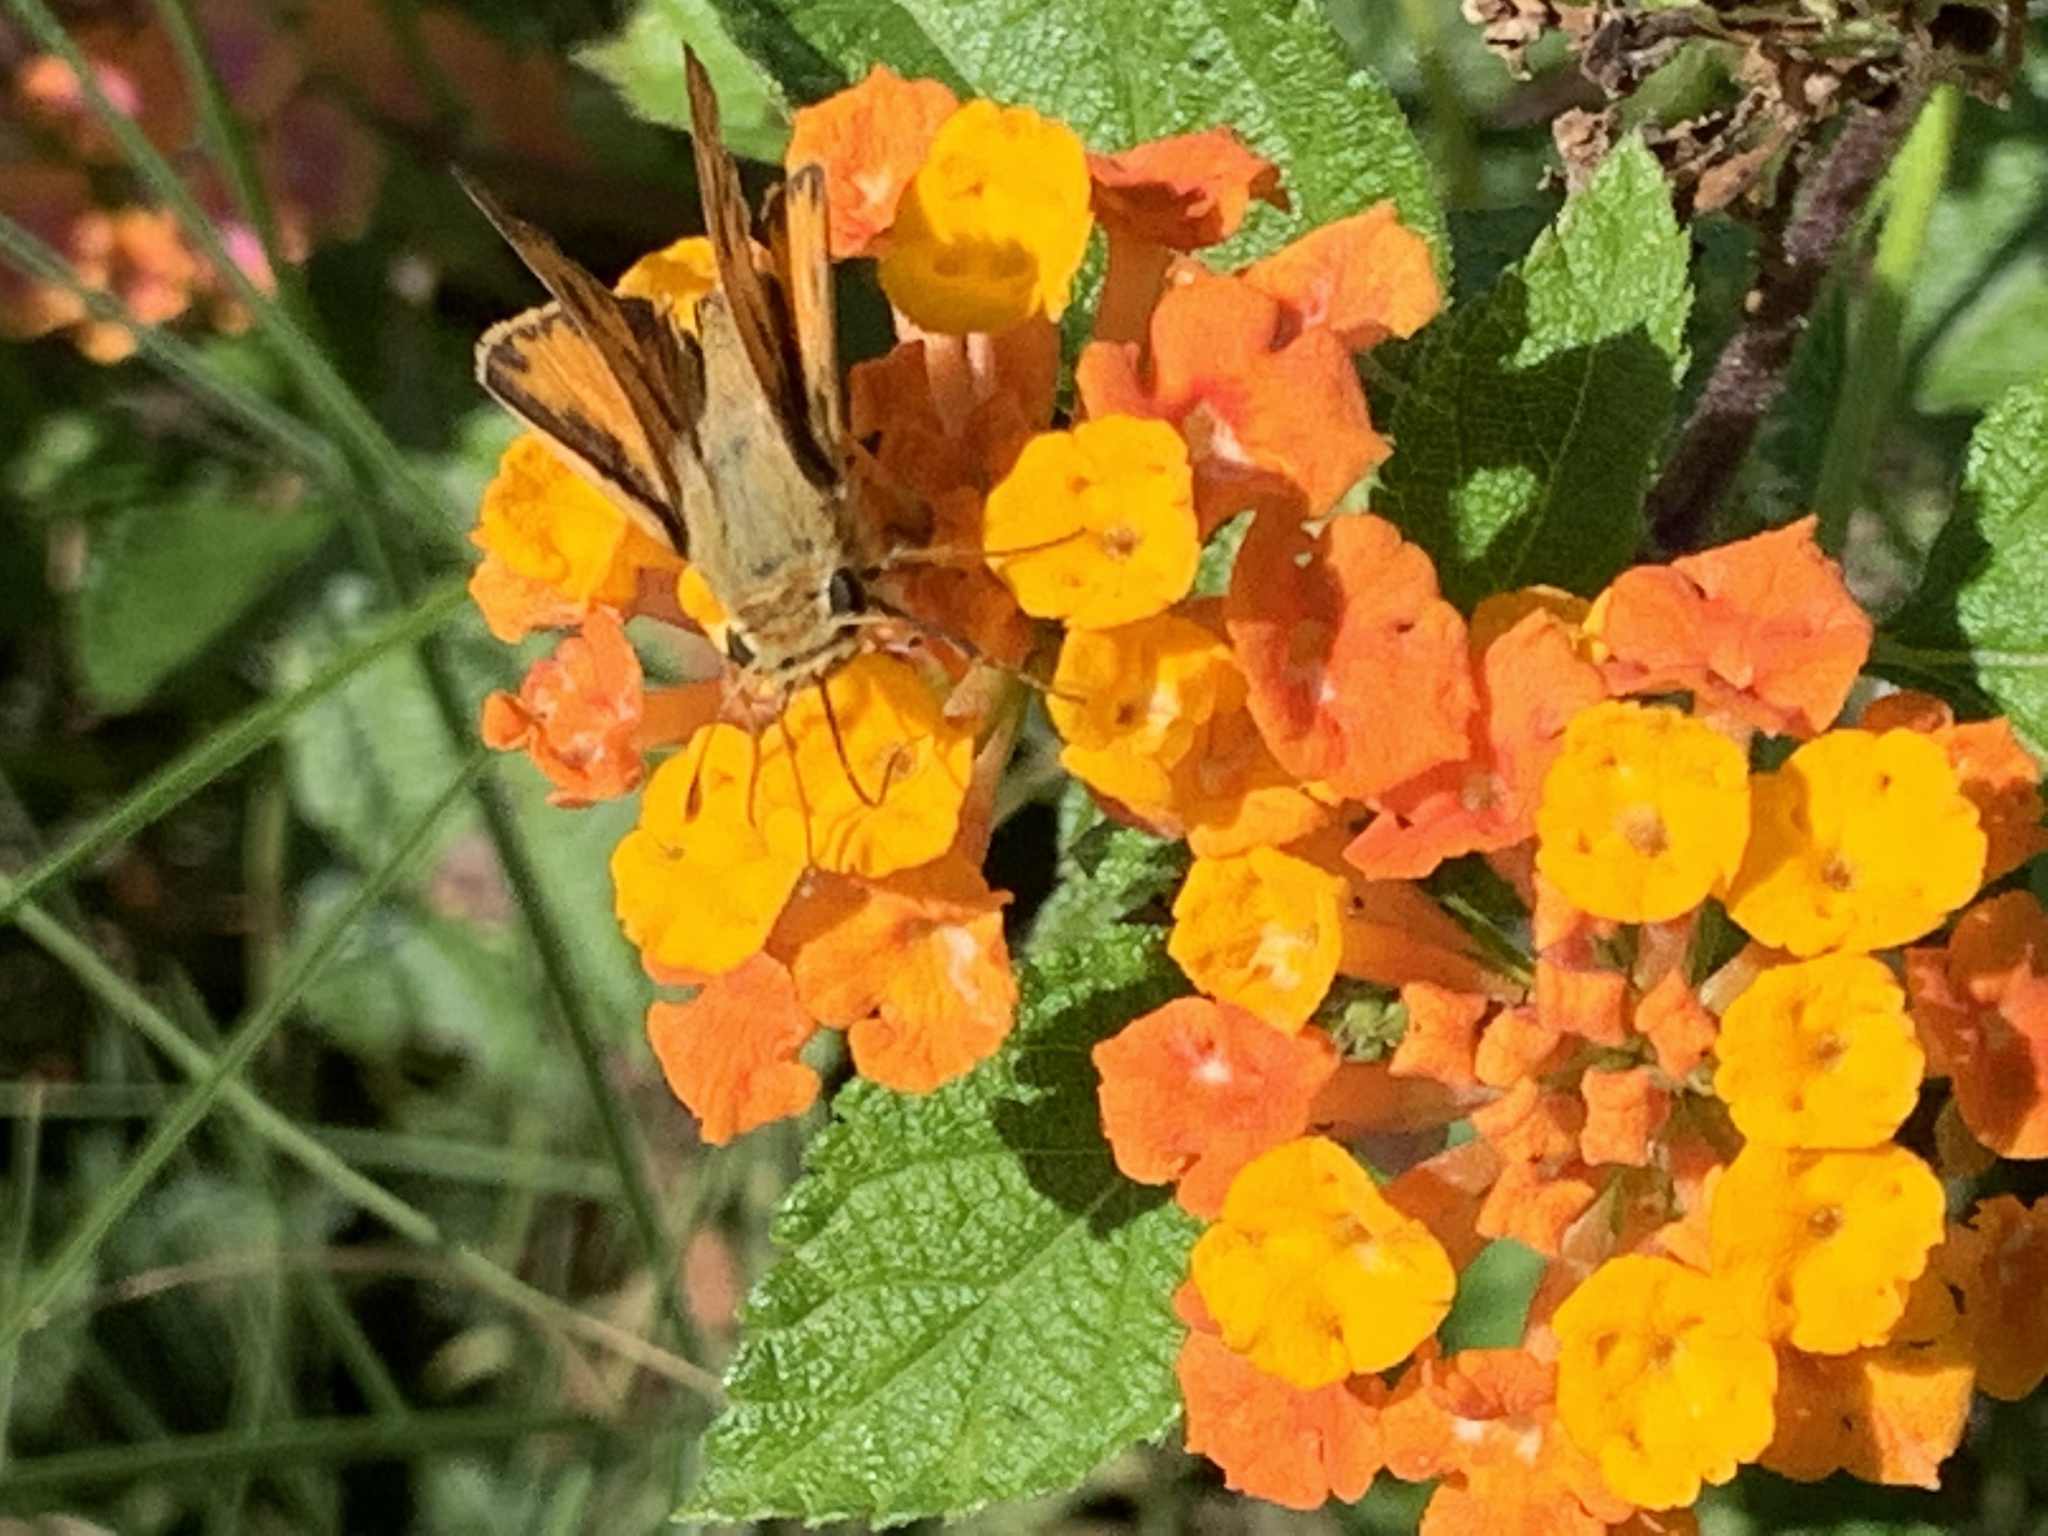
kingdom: Animalia
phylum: Arthropoda
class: Insecta
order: Lepidoptera
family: Hesperiidae
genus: Hylephila
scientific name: Hylephila phyleus
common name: Fiery skipper
